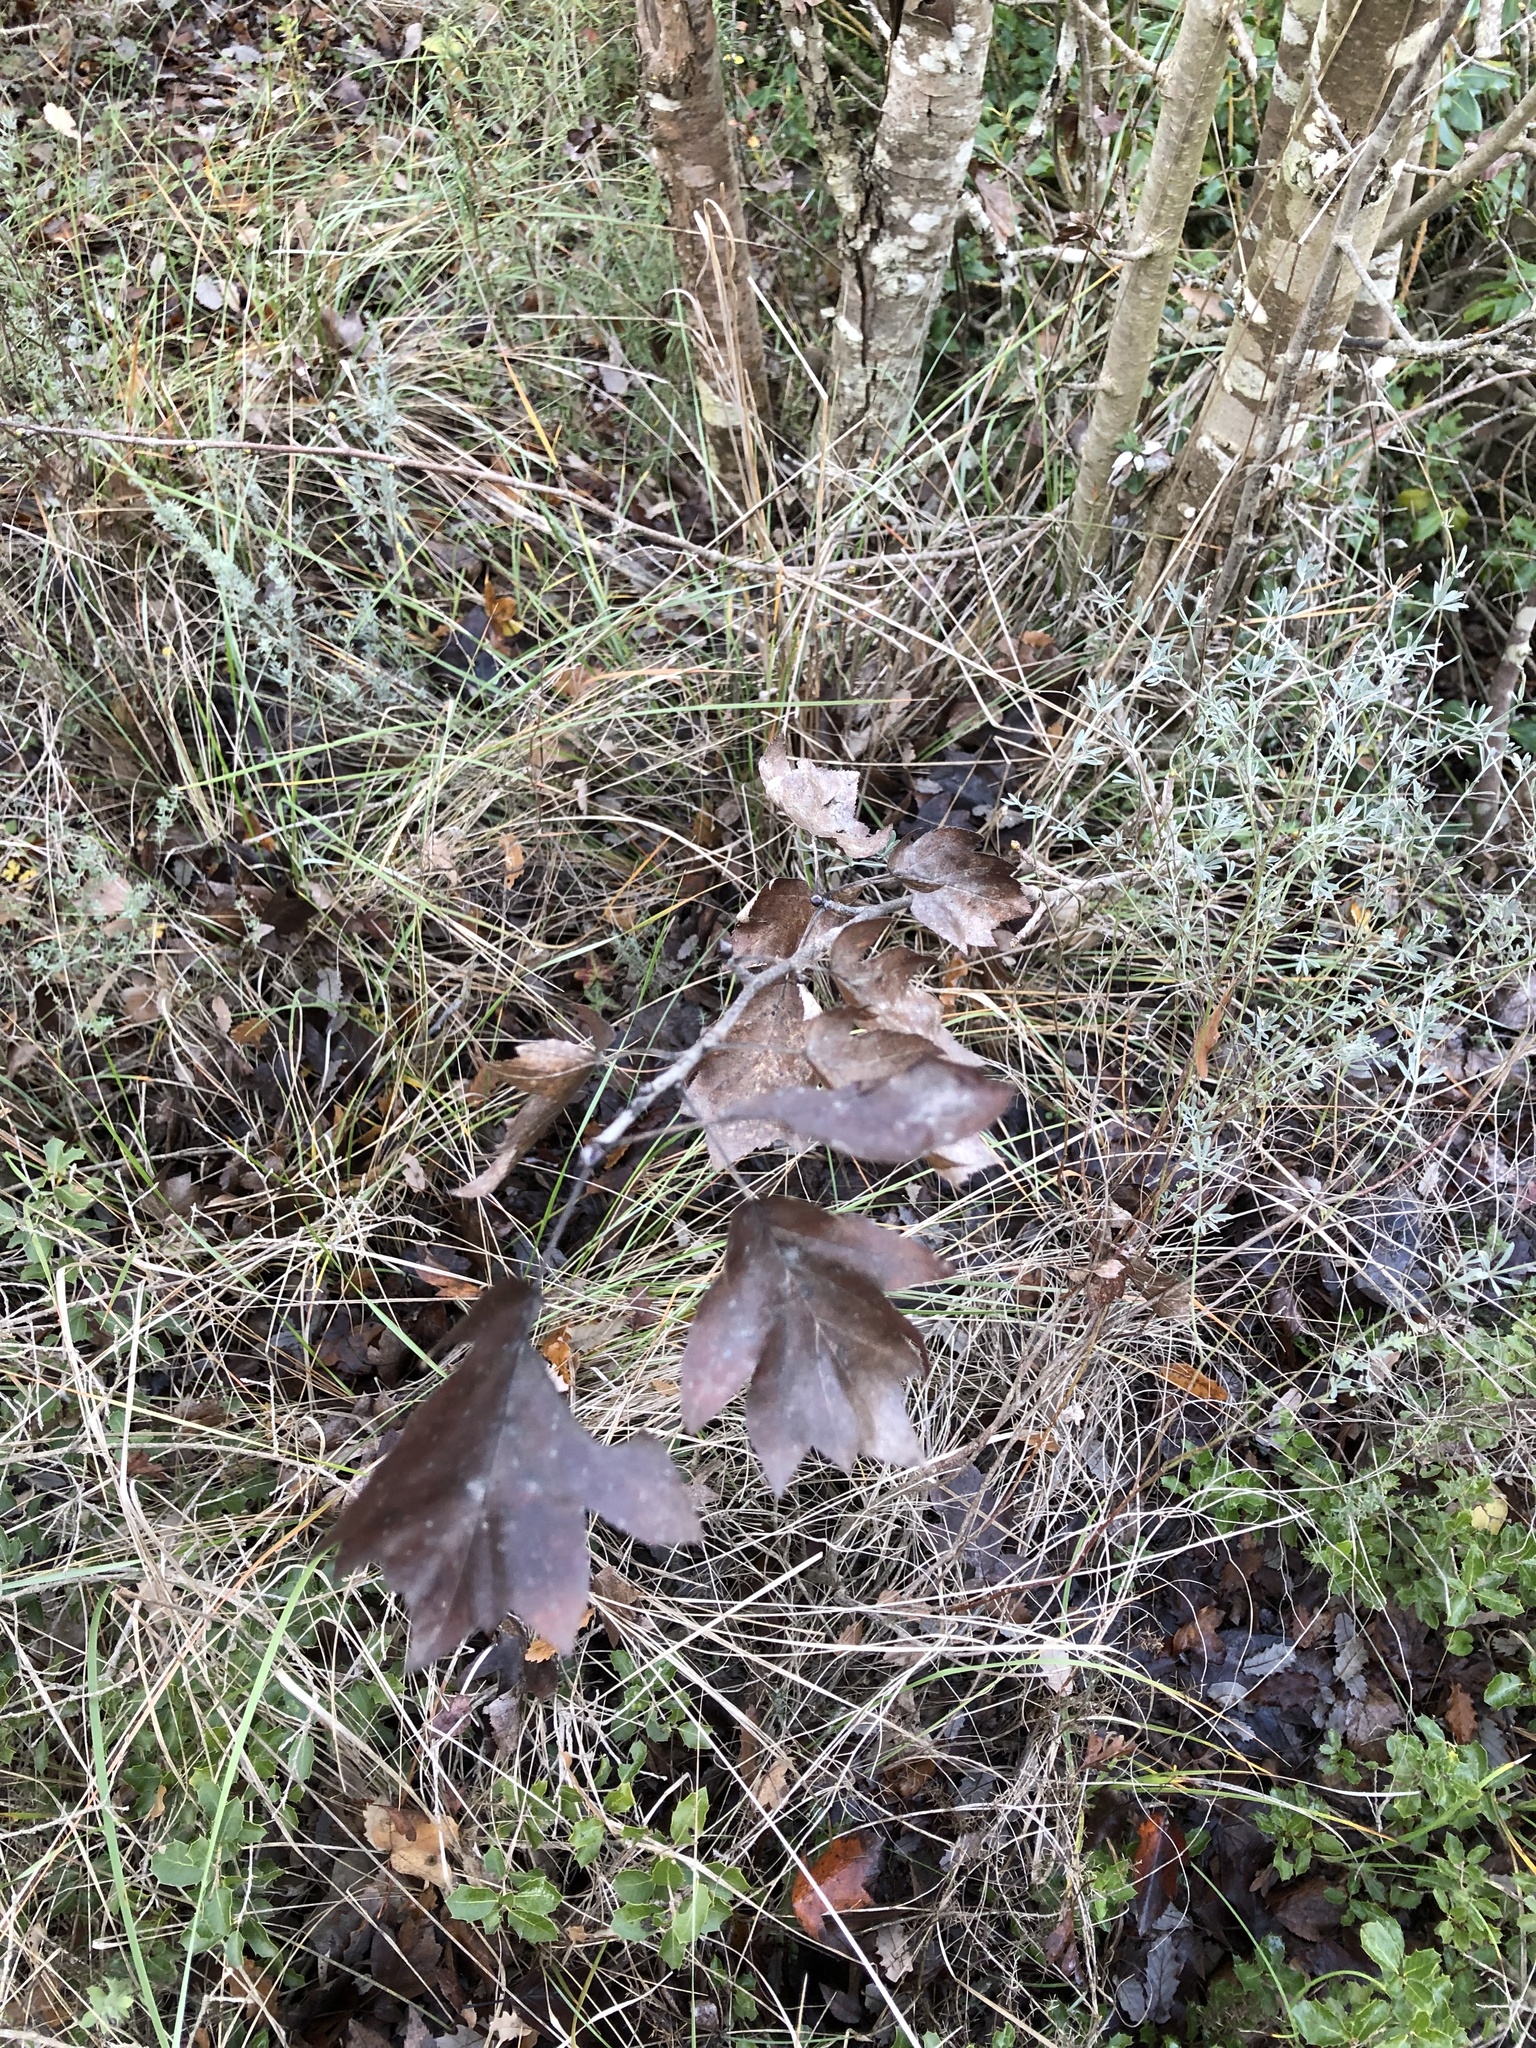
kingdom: Plantae
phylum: Tracheophyta
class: Magnoliopsida
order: Rosales
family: Rosaceae
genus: Torminalis
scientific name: Torminalis glaberrima
